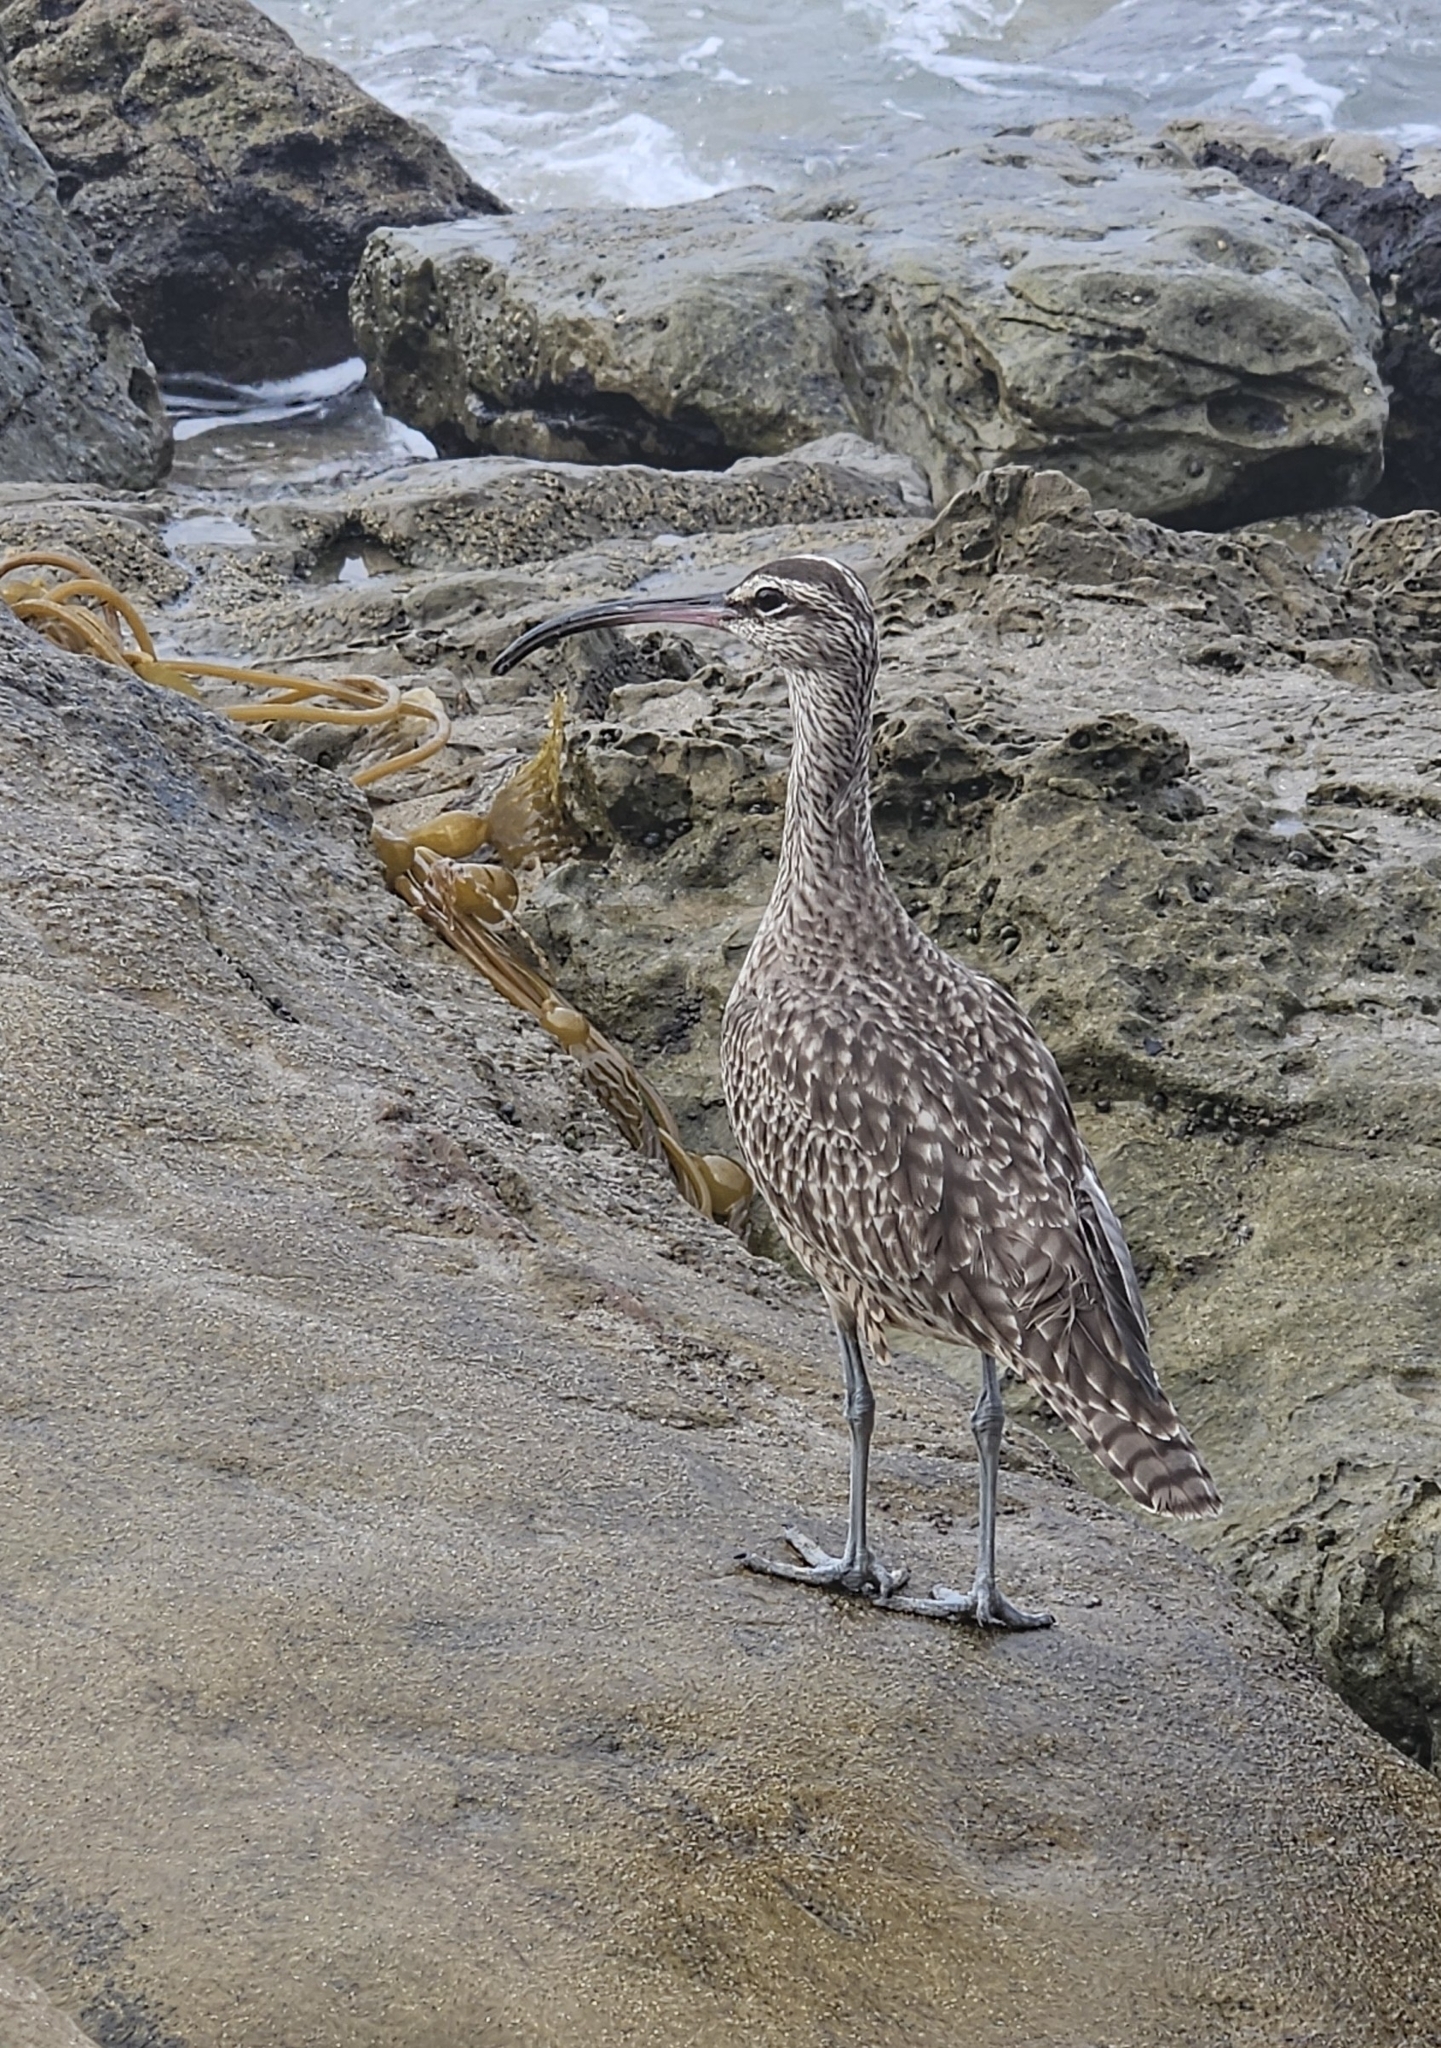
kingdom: Animalia
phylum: Chordata
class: Aves
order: Charadriiformes
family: Scolopacidae
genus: Numenius
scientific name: Numenius phaeopus
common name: Whimbrel
